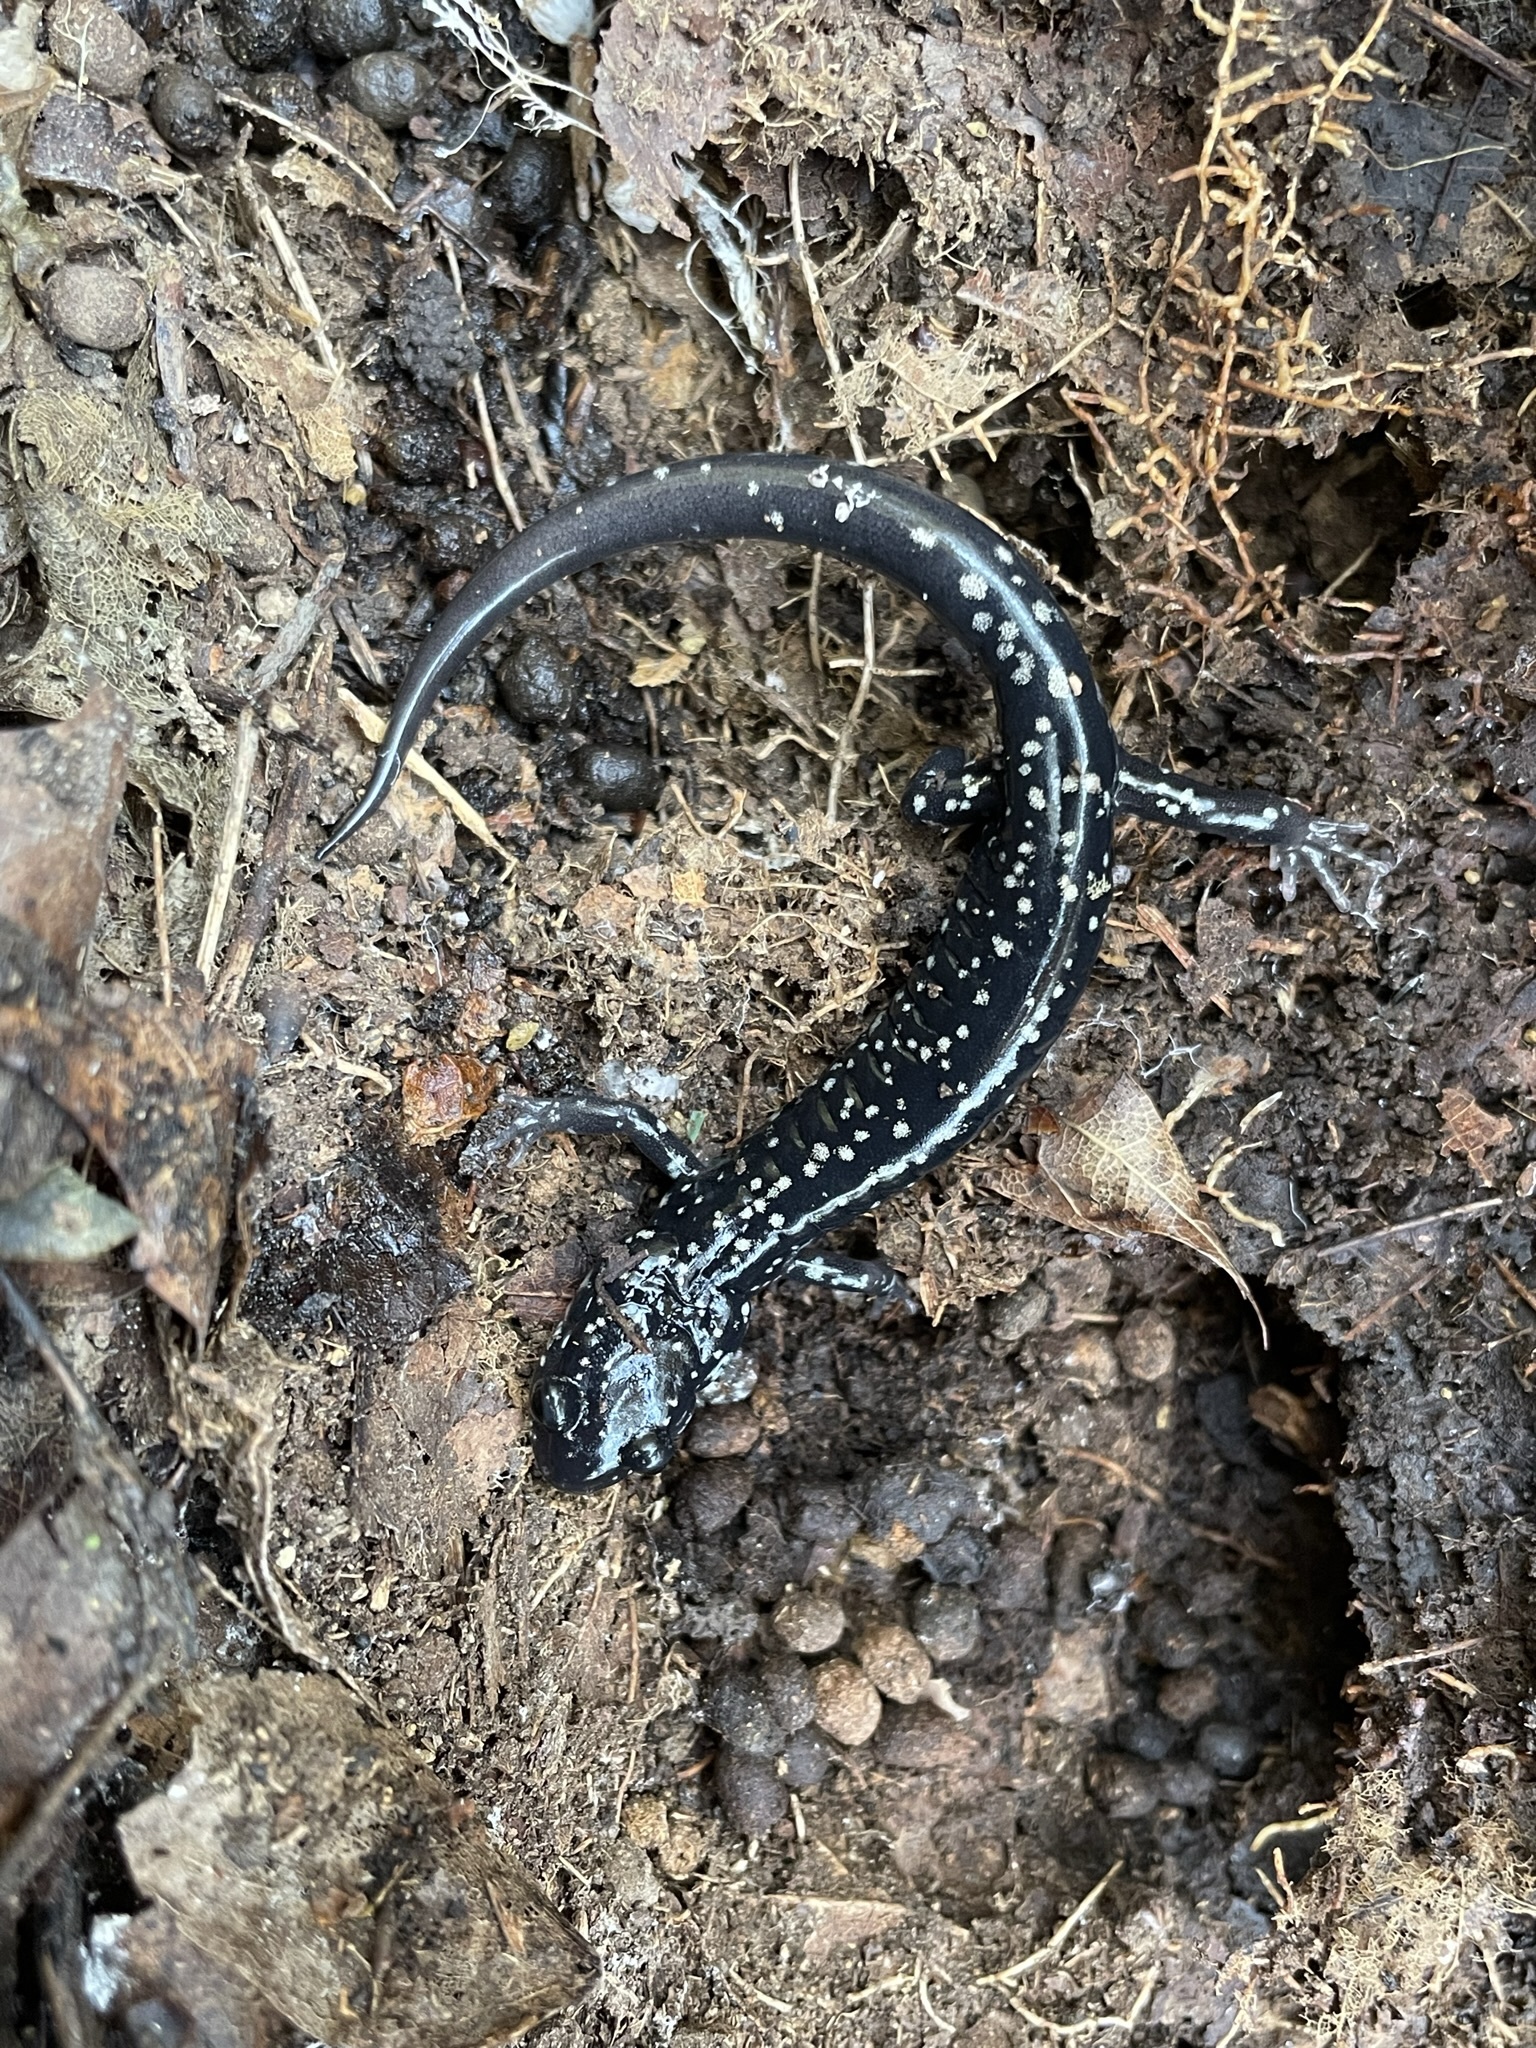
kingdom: Animalia
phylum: Chordata
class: Amphibia
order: Caudata
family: Plethodontidae
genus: Plethodon
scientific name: Plethodon
